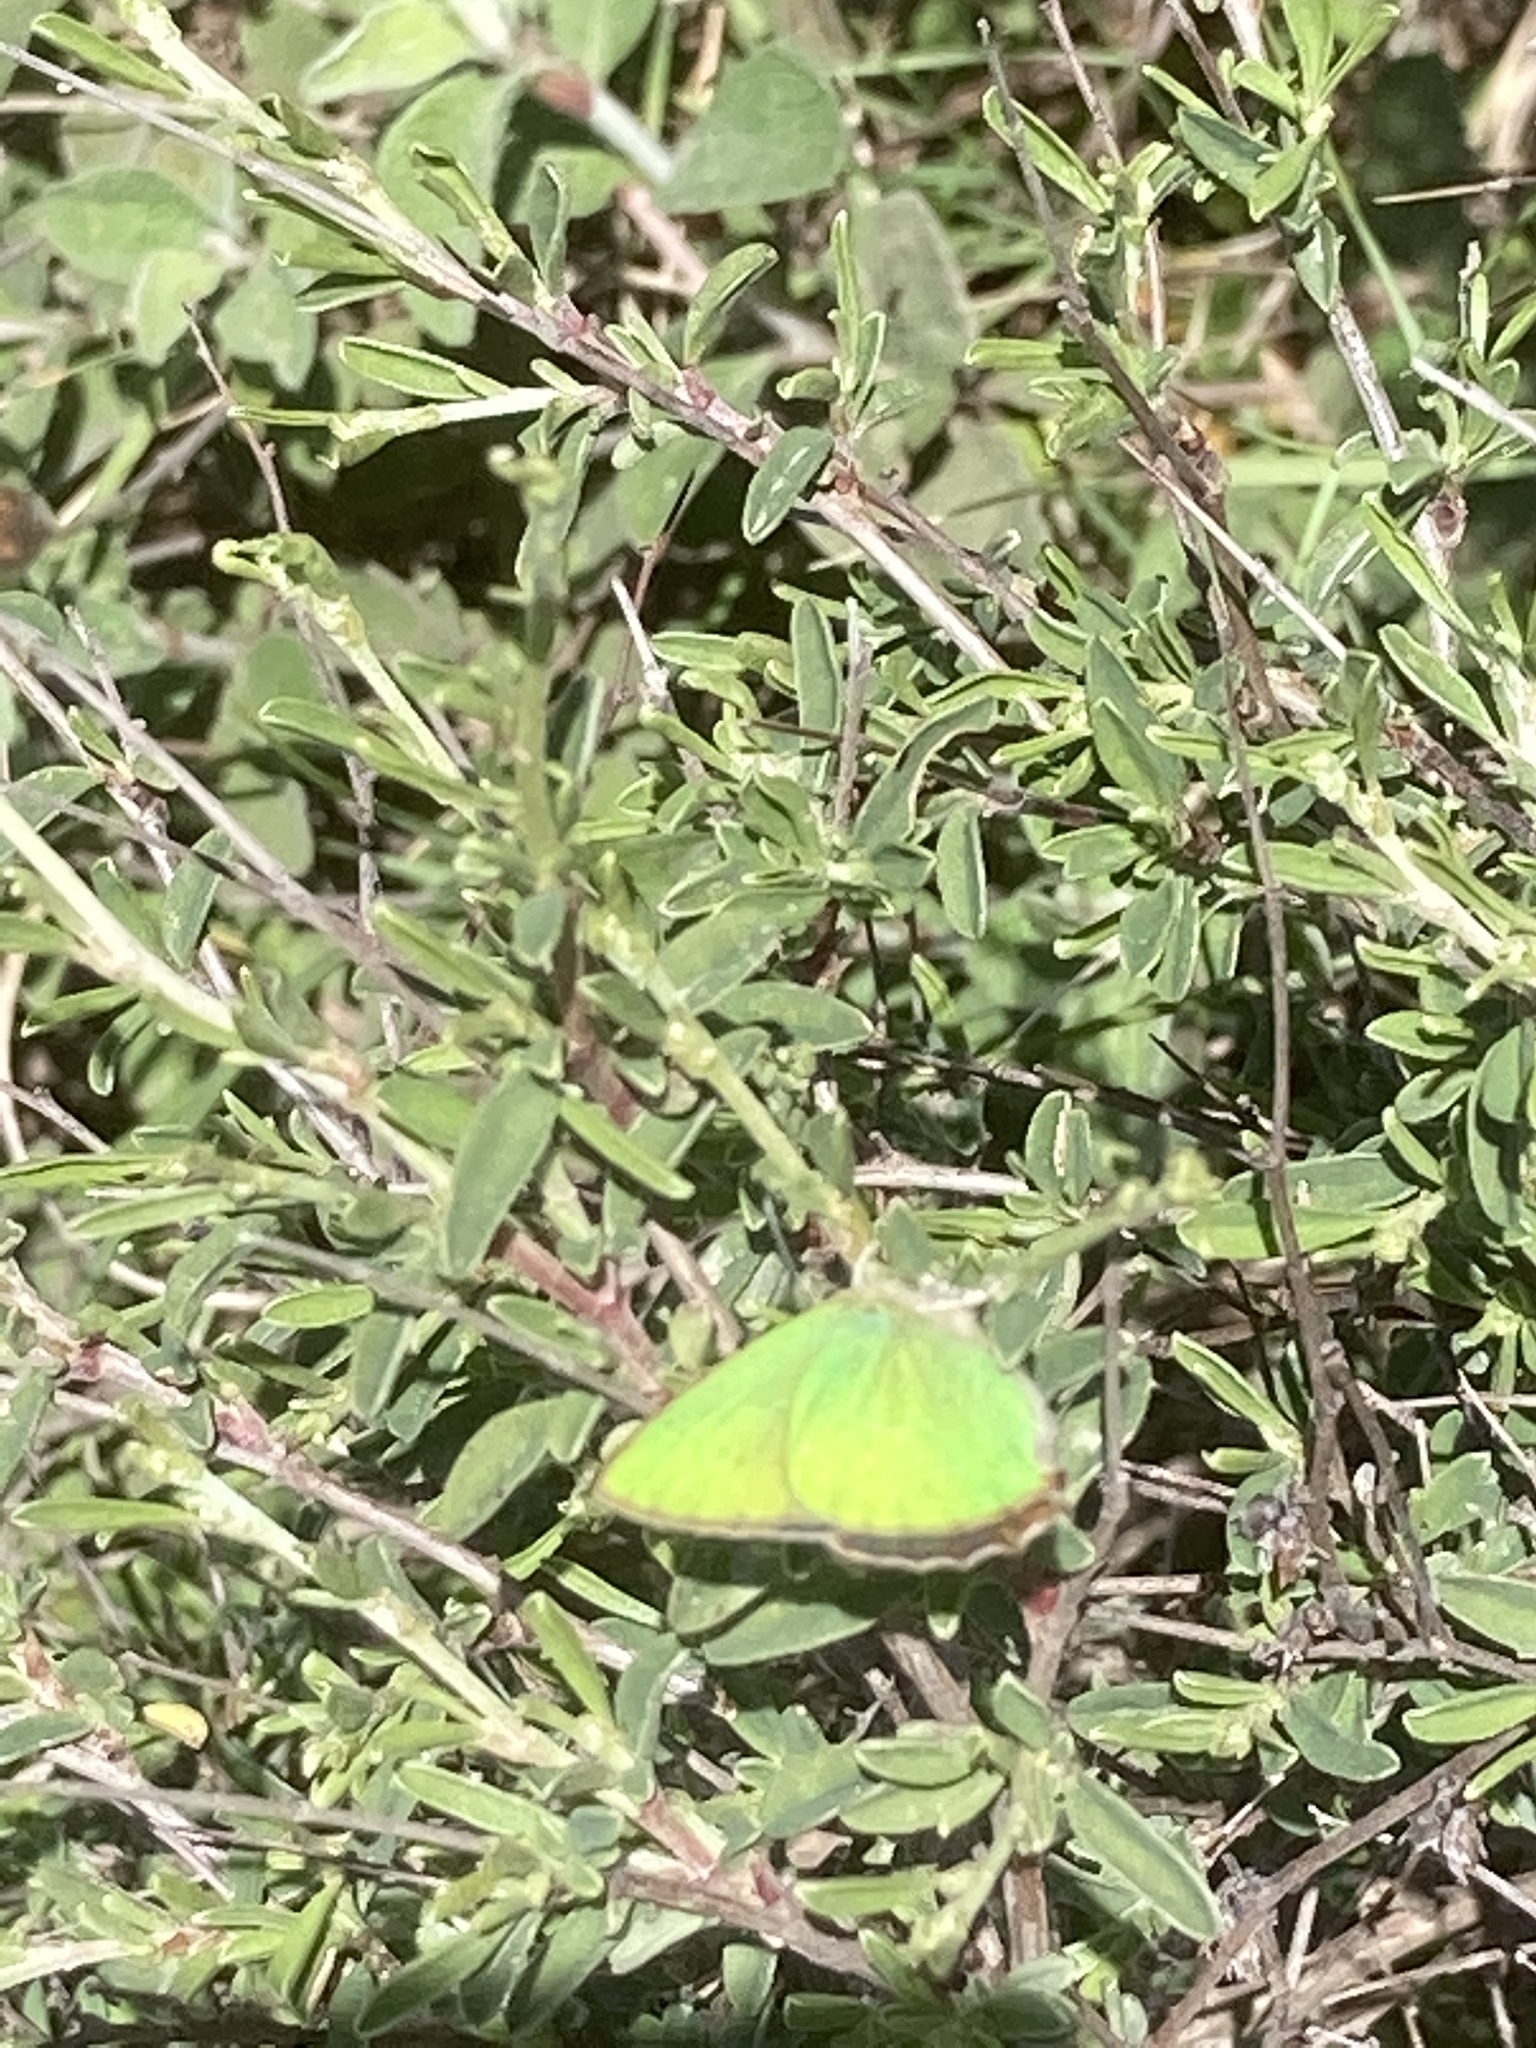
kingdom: Animalia
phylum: Arthropoda
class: Insecta
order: Lepidoptera
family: Lycaenidae
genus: Callophrys
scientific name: Callophrys rubi
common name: Green hairstreak
